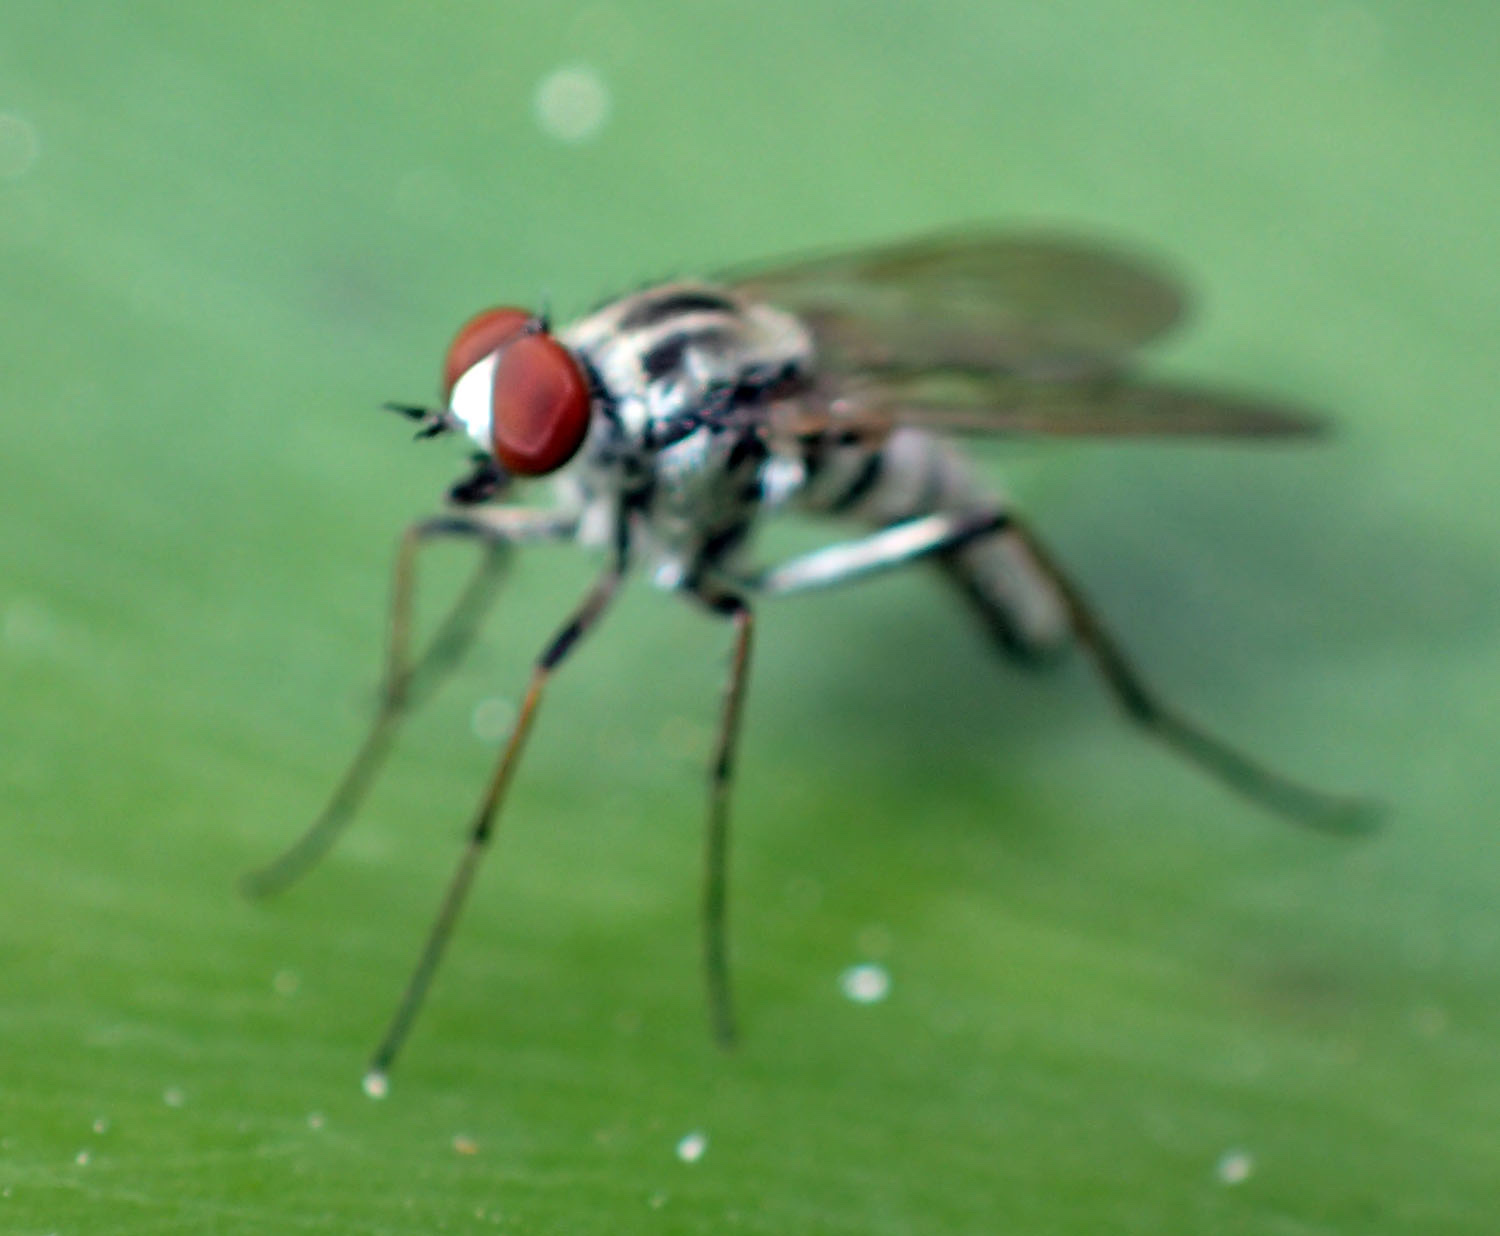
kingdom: Animalia
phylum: Arthropoda
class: Insecta
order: Diptera
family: Therevidae
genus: Penniverpa
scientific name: Penniverpa festina
